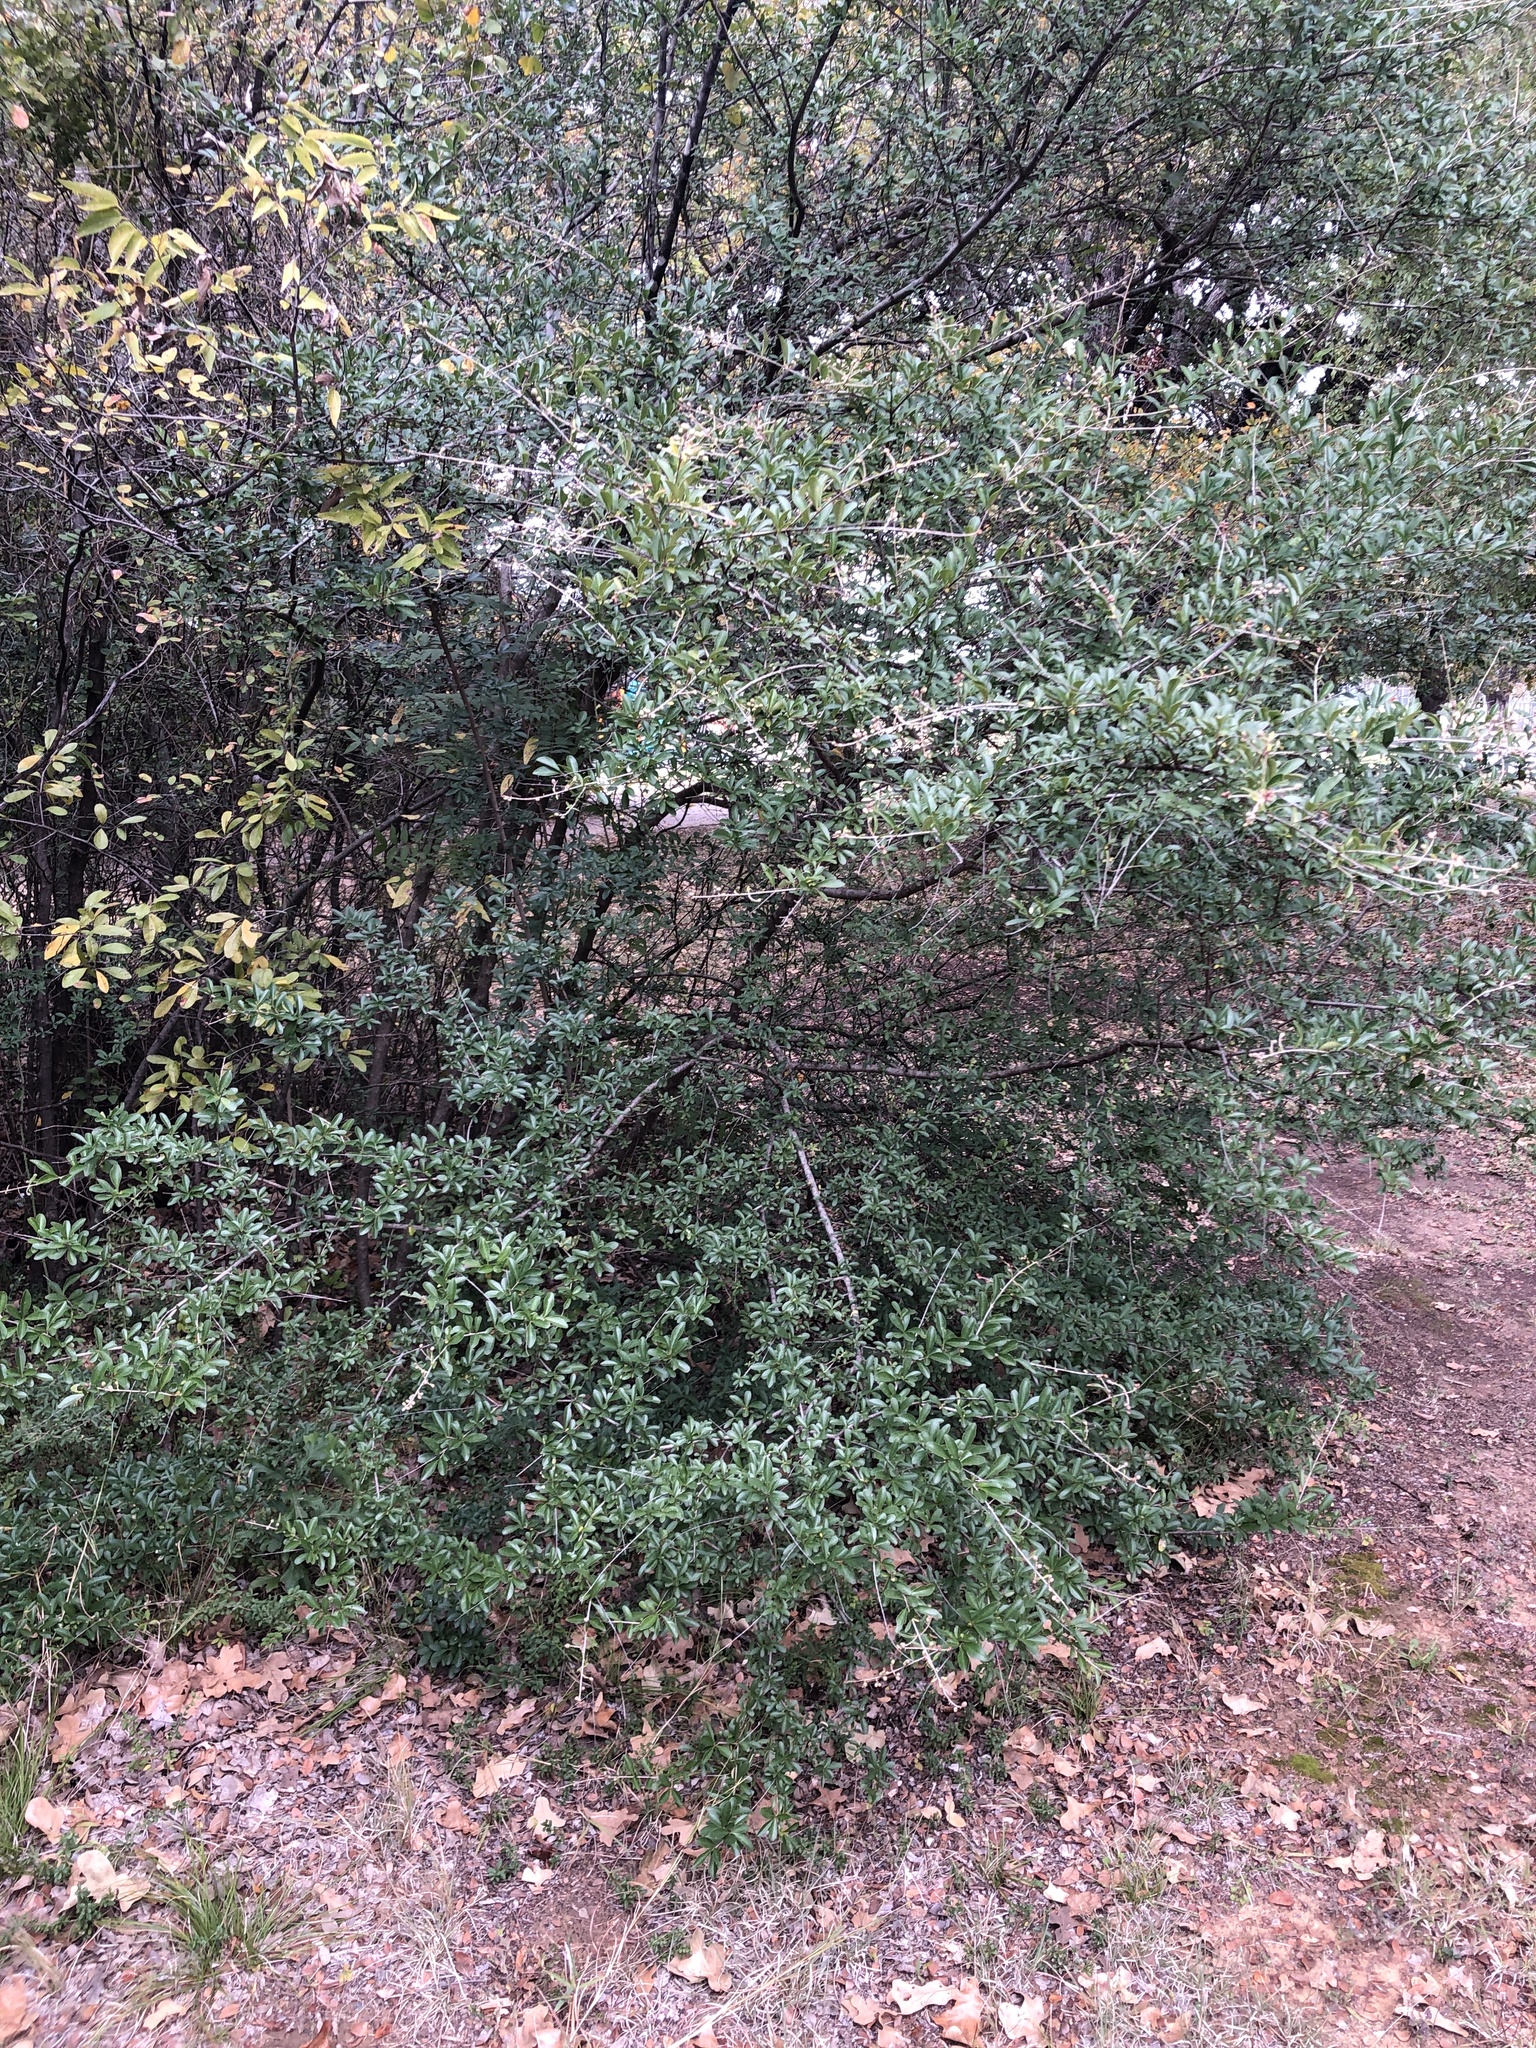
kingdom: Plantae
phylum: Tracheophyta
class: Magnoliopsida
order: Lamiales
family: Oleaceae
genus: Ligustrum
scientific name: Ligustrum quihoui
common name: Waxyleaf privet
